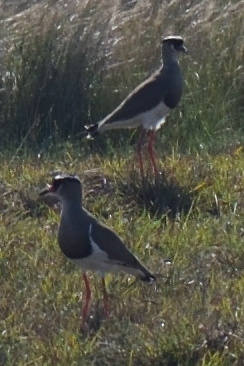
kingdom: Animalia
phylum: Chordata
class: Aves
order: Charadriiformes
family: Charadriidae
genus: Vanellus
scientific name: Vanellus coronatus
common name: Crowned lapwing
